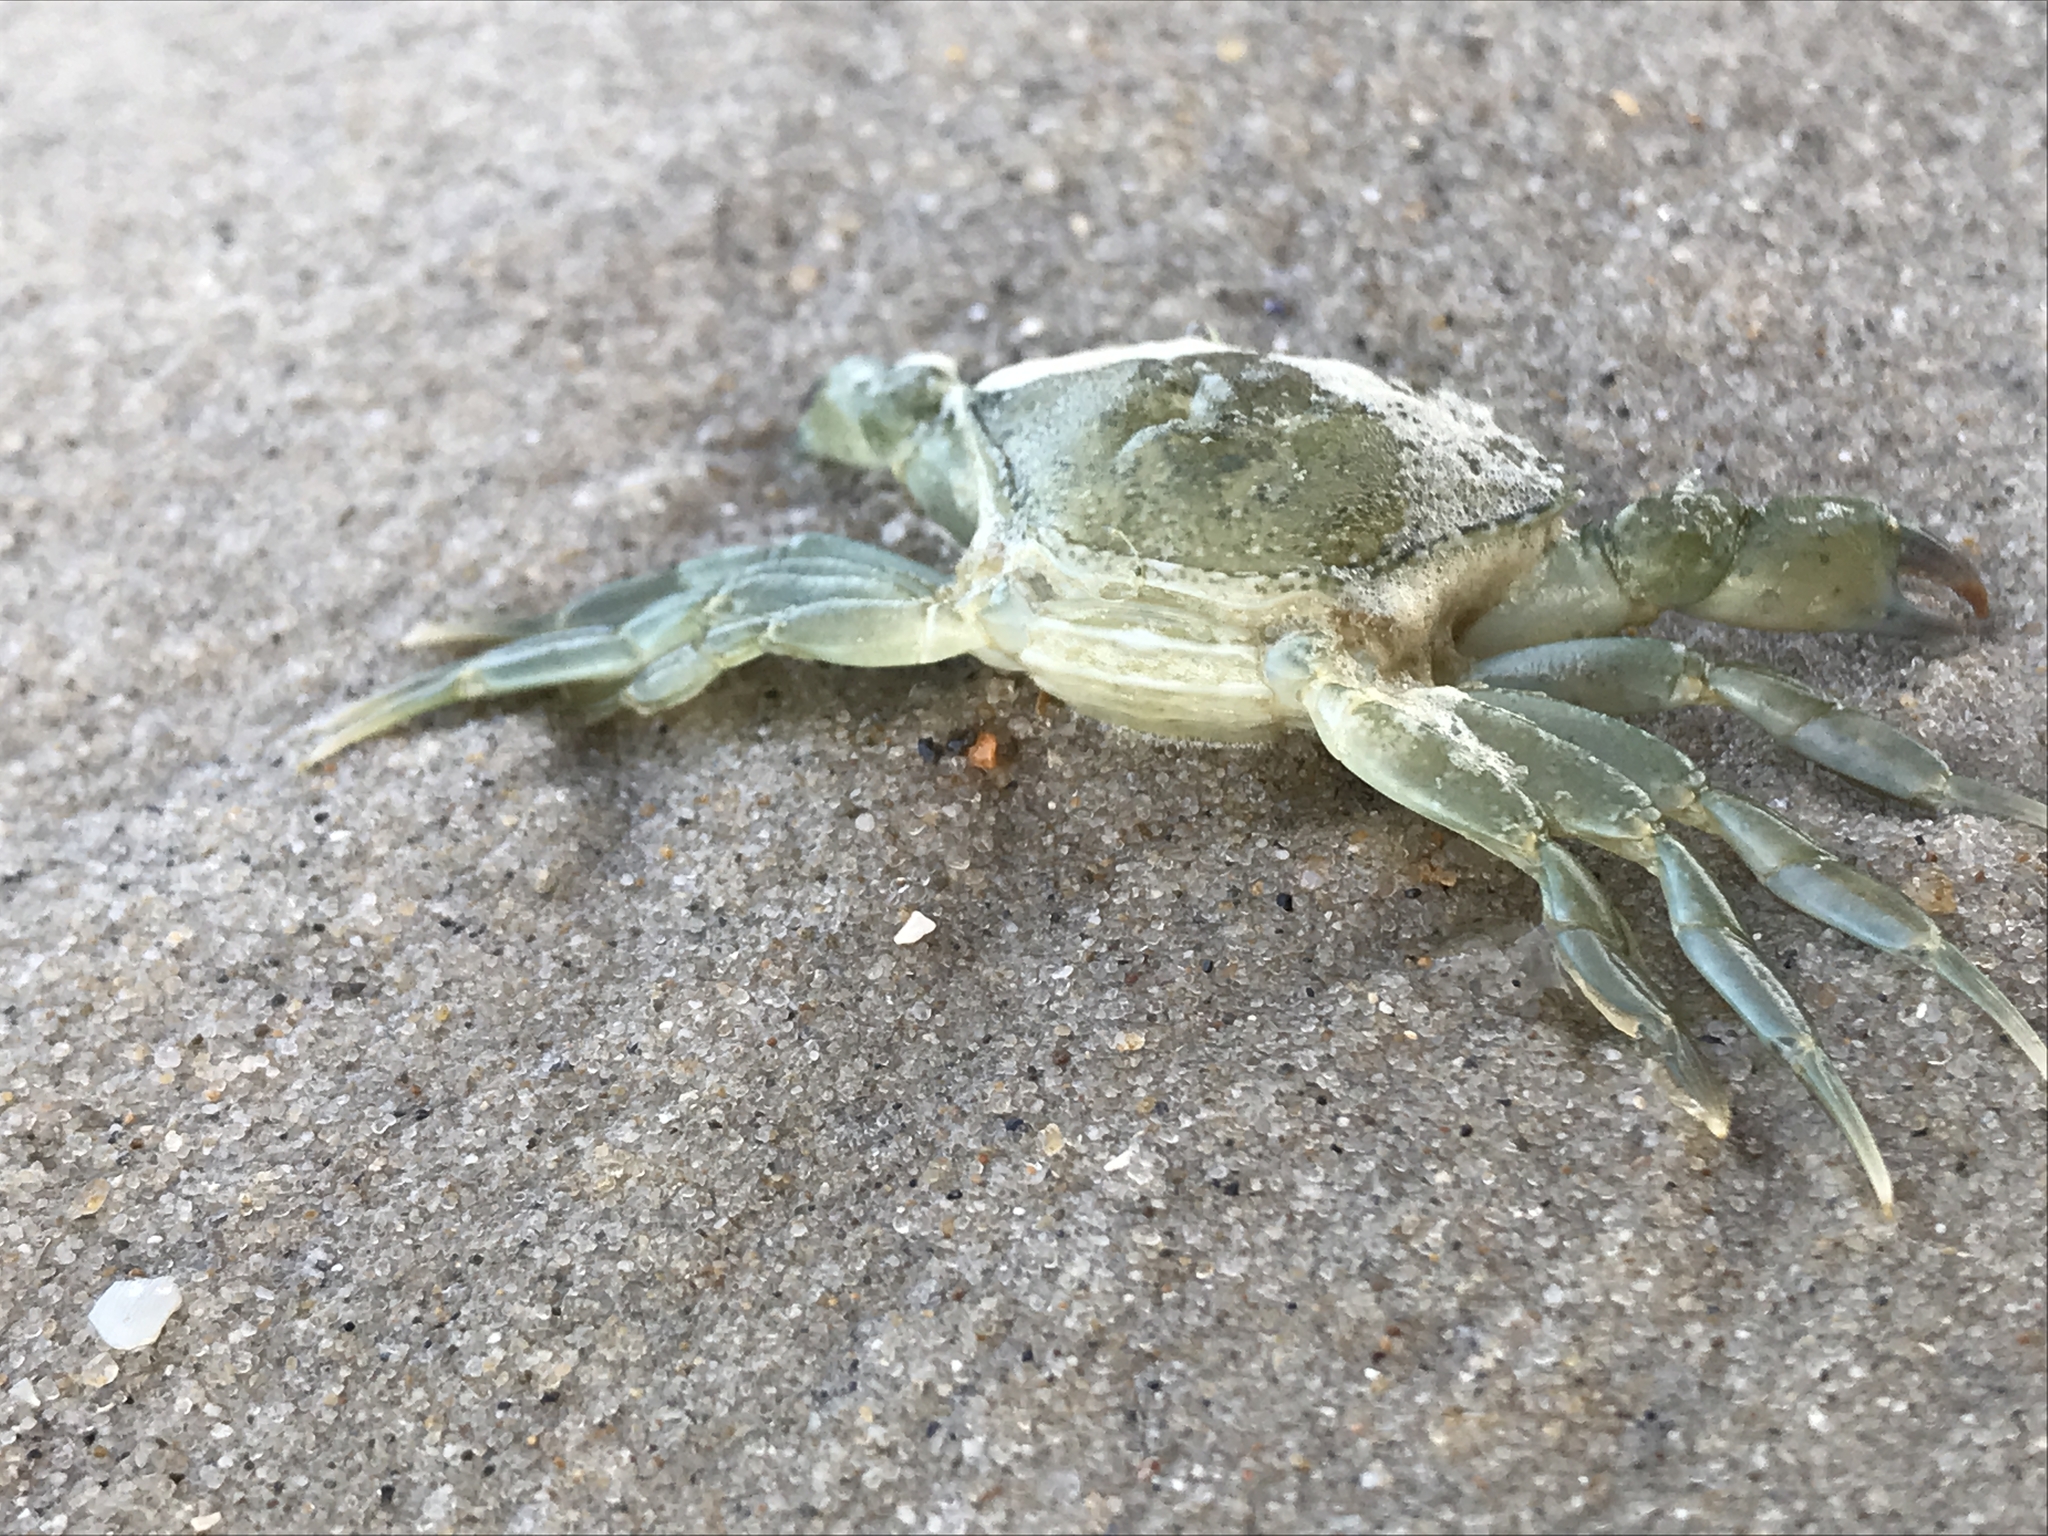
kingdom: Animalia
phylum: Arthropoda
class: Malacostraca
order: Decapoda
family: Carcinidae
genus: Carcinus
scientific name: Carcinus maenas
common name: European green crab
